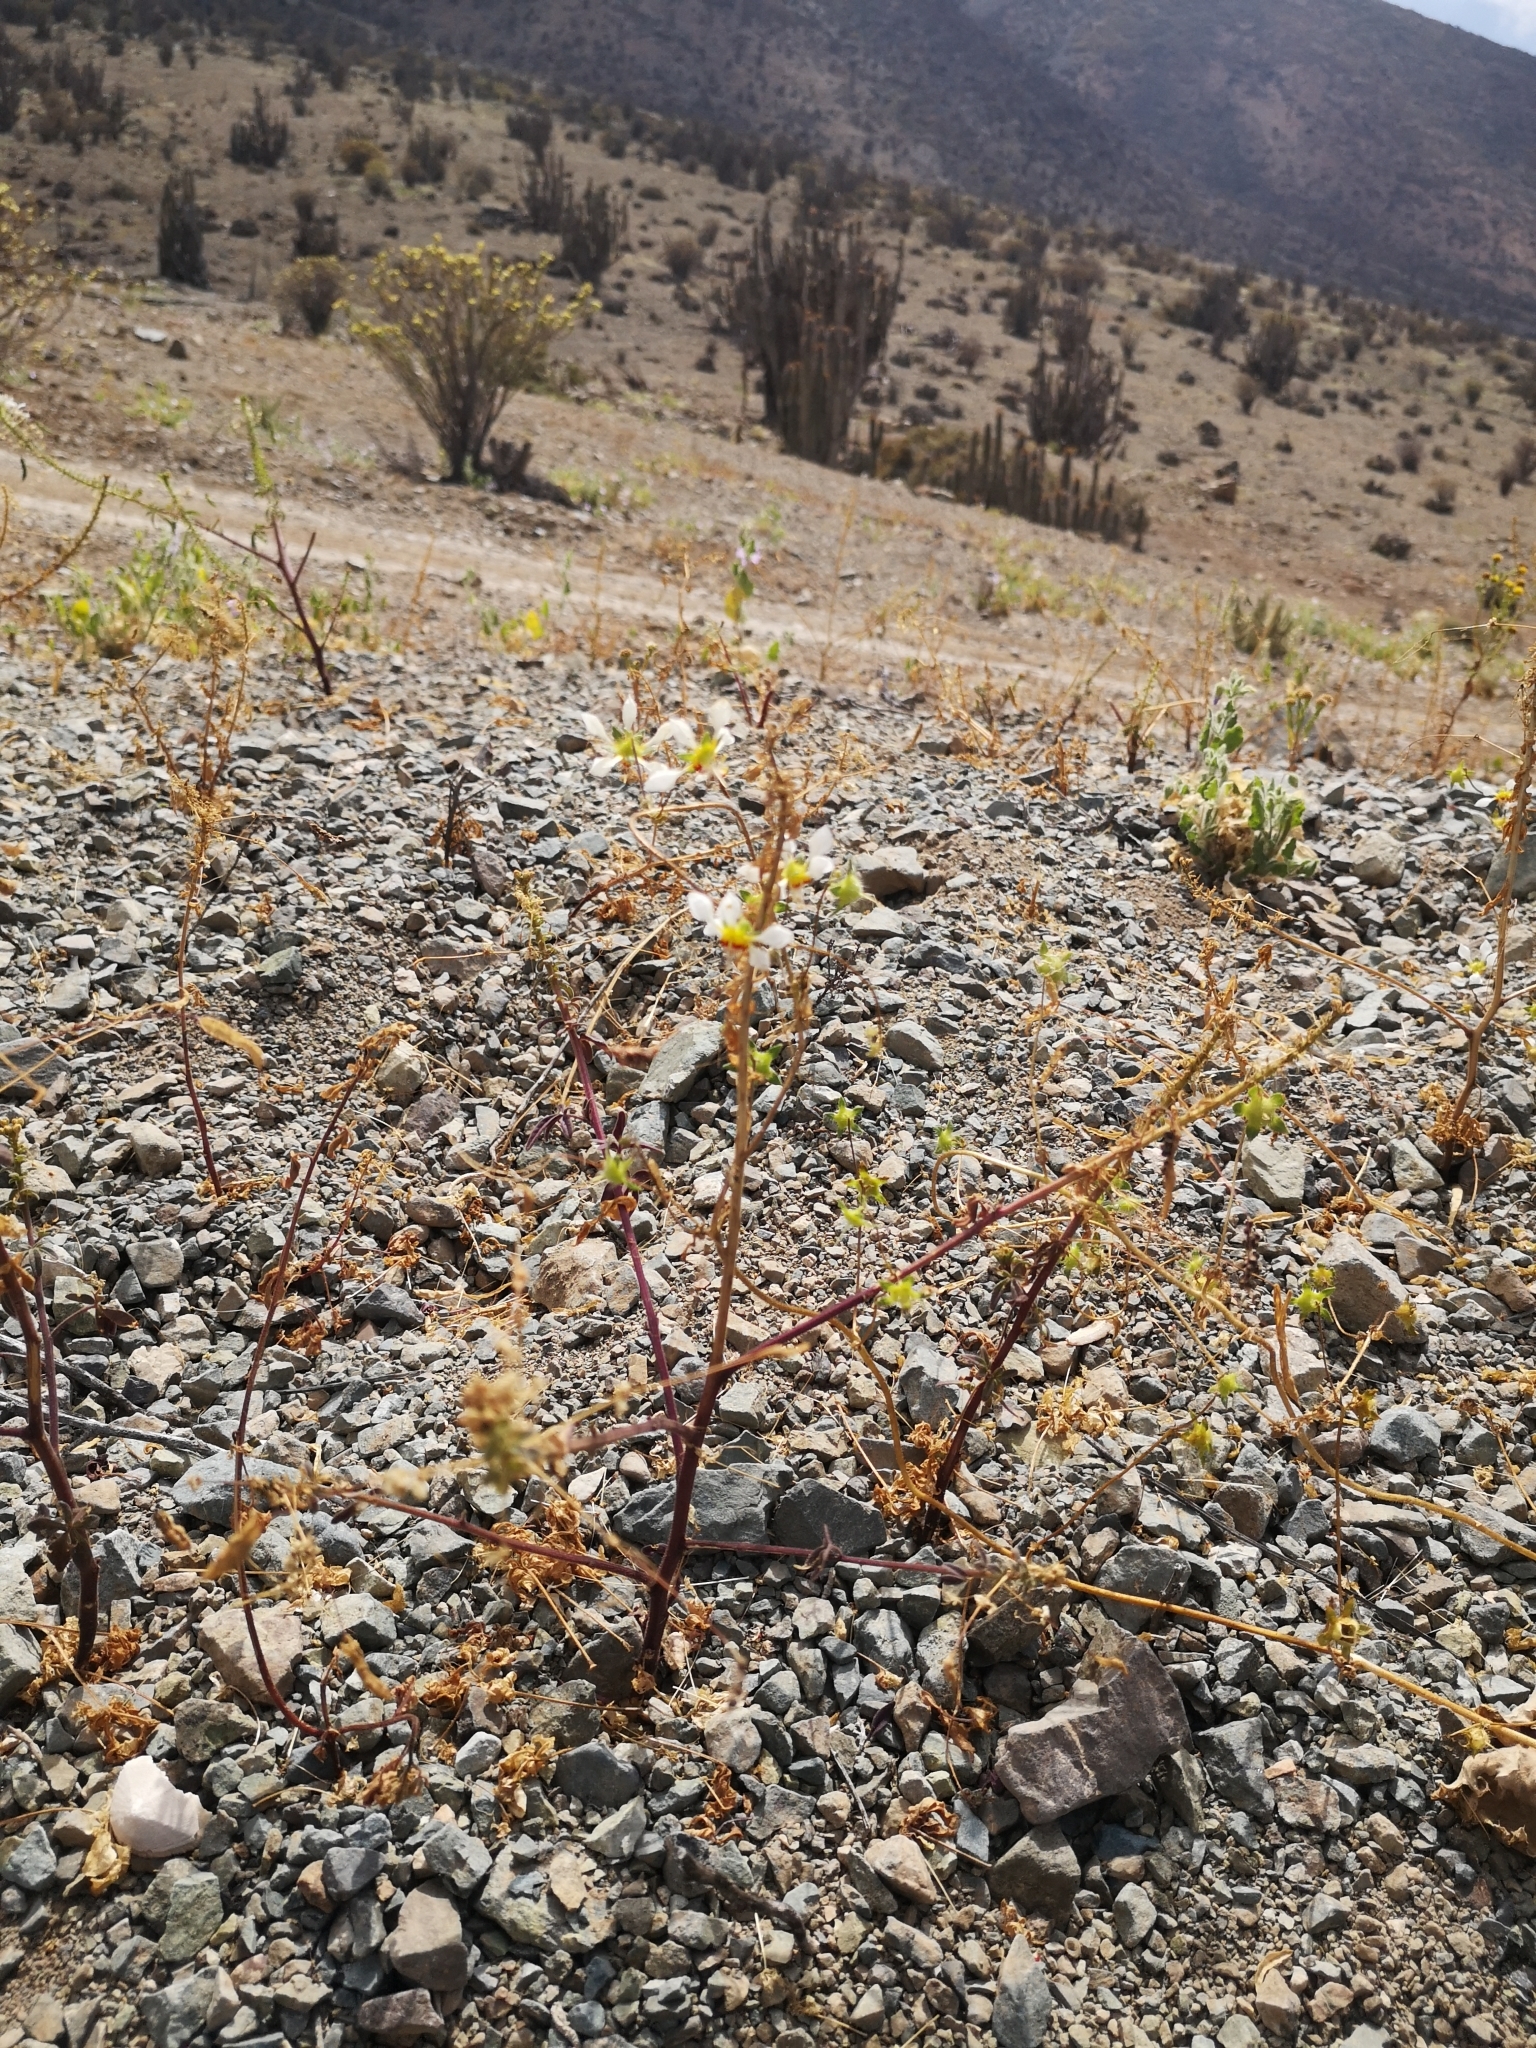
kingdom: Plantae
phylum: Tracheophyta
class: Magnoliopsida
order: Cornales
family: Loasaceae
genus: Loasa
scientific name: Loasa elongata
